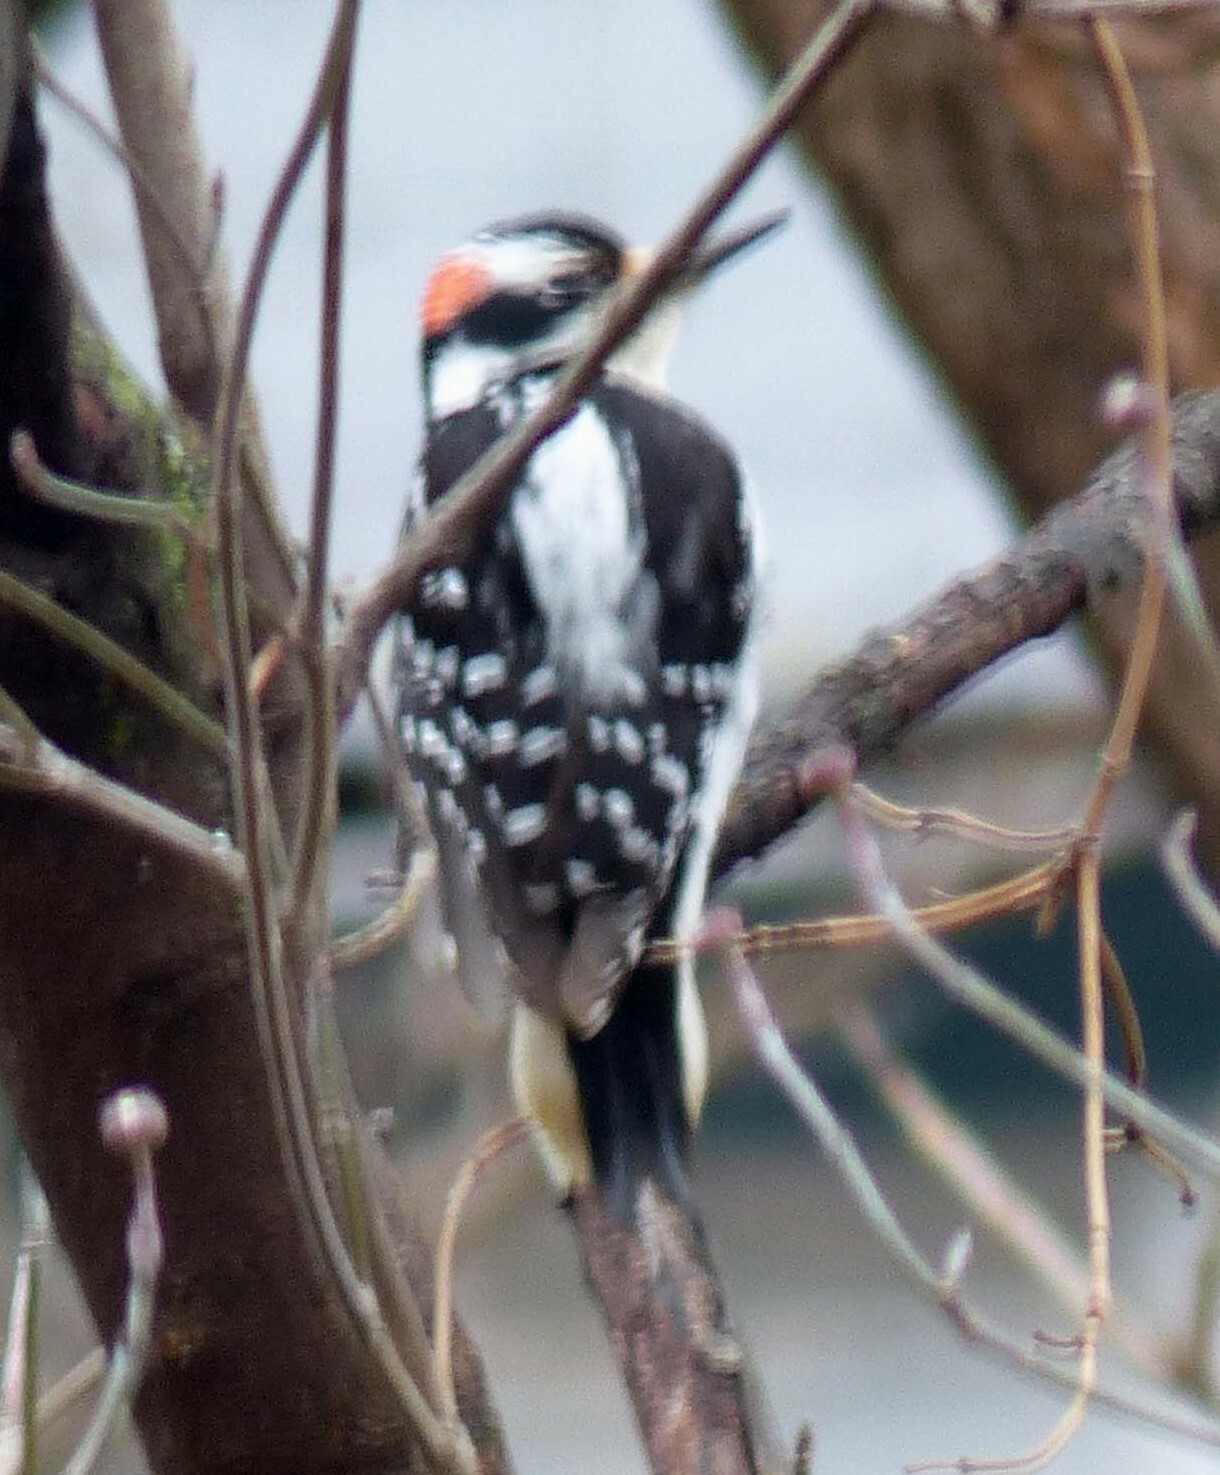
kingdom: Animalia
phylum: Chordata
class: Aves
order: Piciformes
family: Picidae
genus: Leuconotopicus
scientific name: Leuconotopicus villosus
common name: Hairy woodpecker
